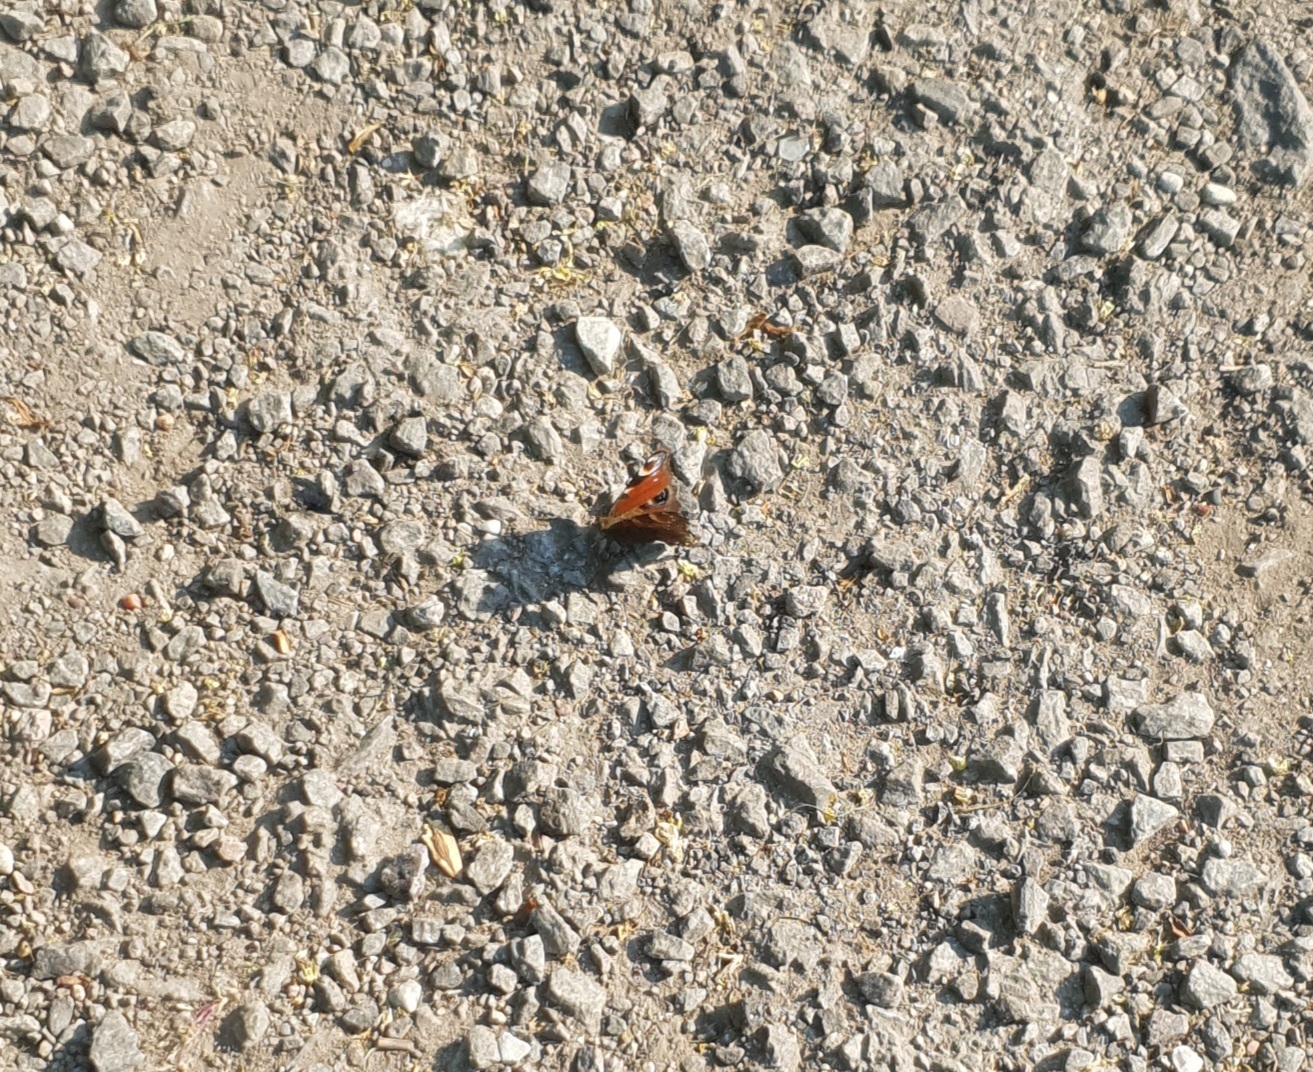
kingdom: Animalia
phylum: Arthropoda
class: Insecta
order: Lepidoptera
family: Nymphalidae
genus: Aglais
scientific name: Aglais io
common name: Peacock
